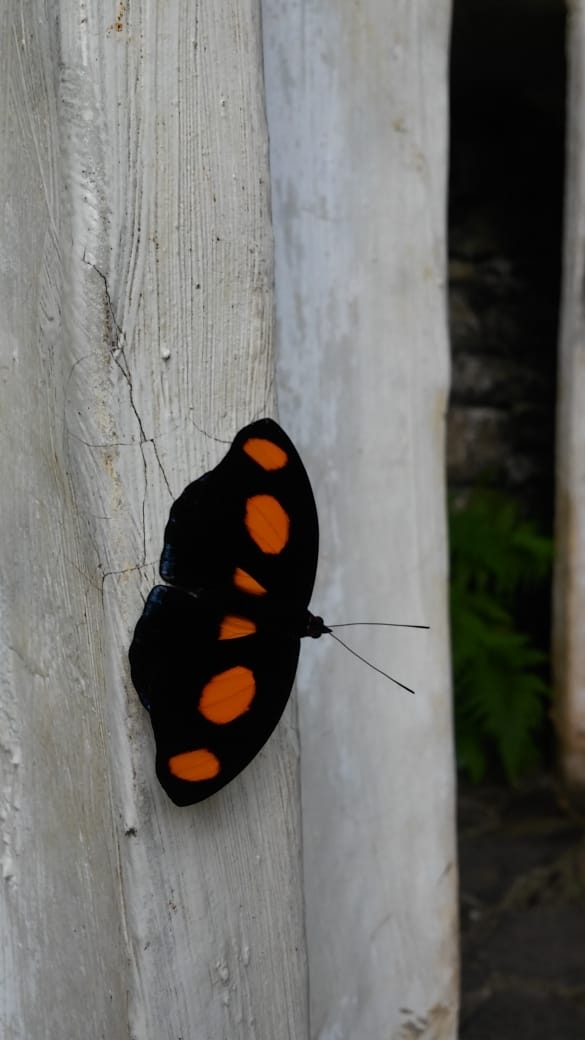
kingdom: Animalia
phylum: Arthropoda
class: Insecta
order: Lepidoptera
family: Nymphalidae
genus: Catonephele
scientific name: Catonephele numilia
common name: Blue-frosted banner
